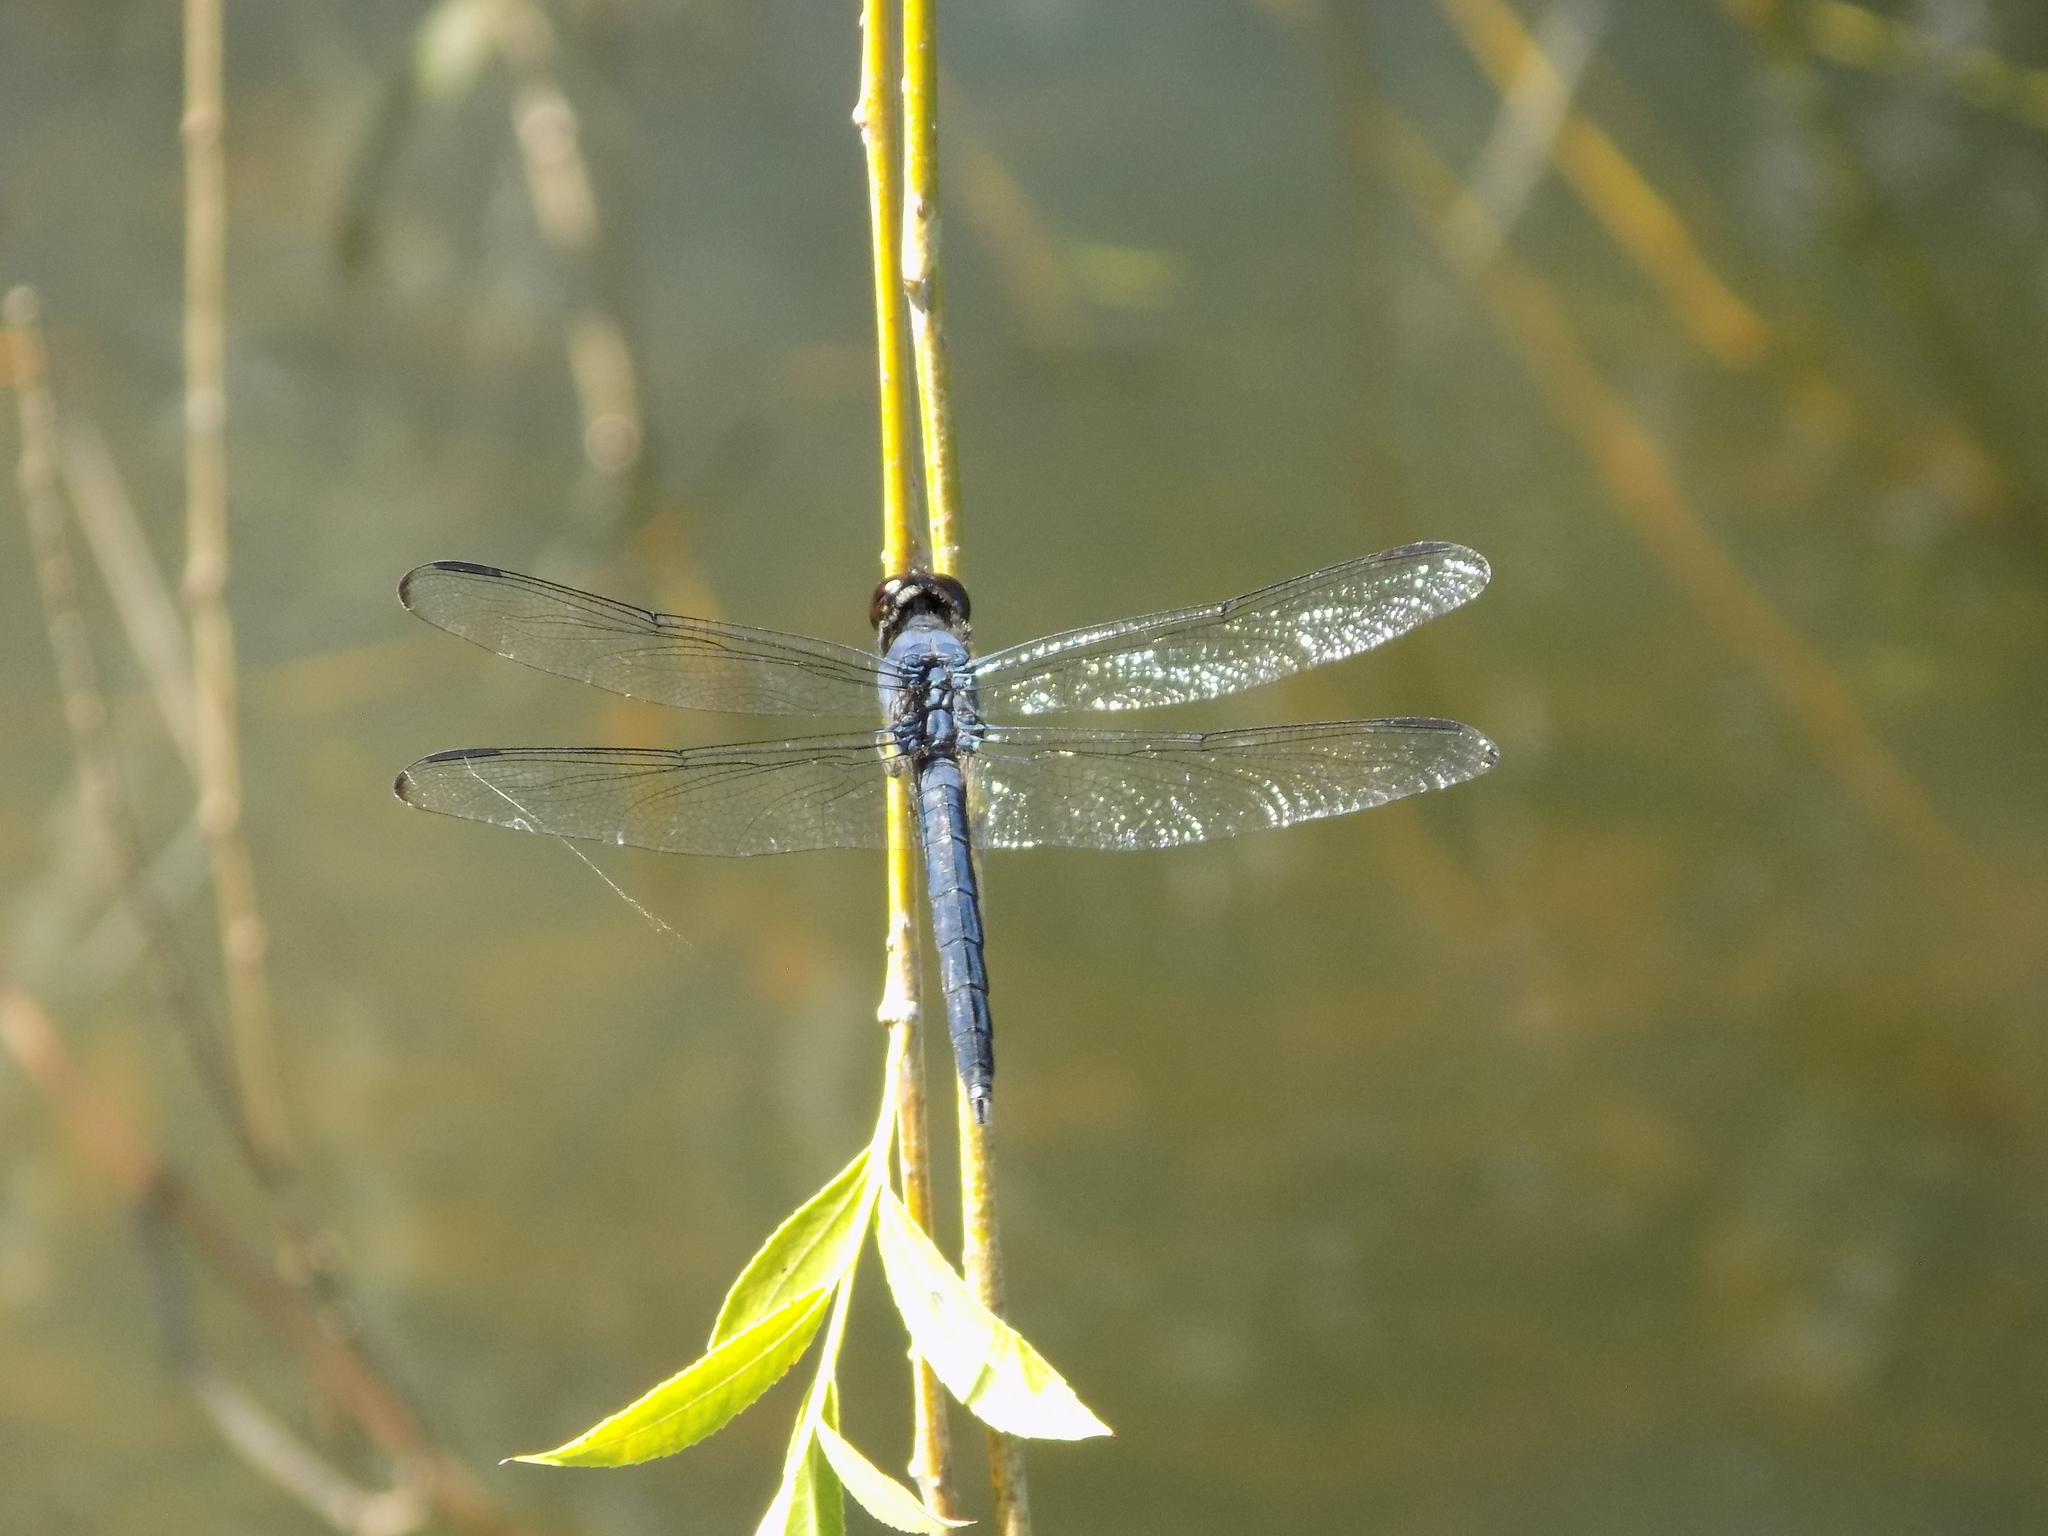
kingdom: Animalia
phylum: Arthropoda
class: Insecta
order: Odonata
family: Libellulidae
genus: Libellula
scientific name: Libellula incesta
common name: Slaty skimmer
